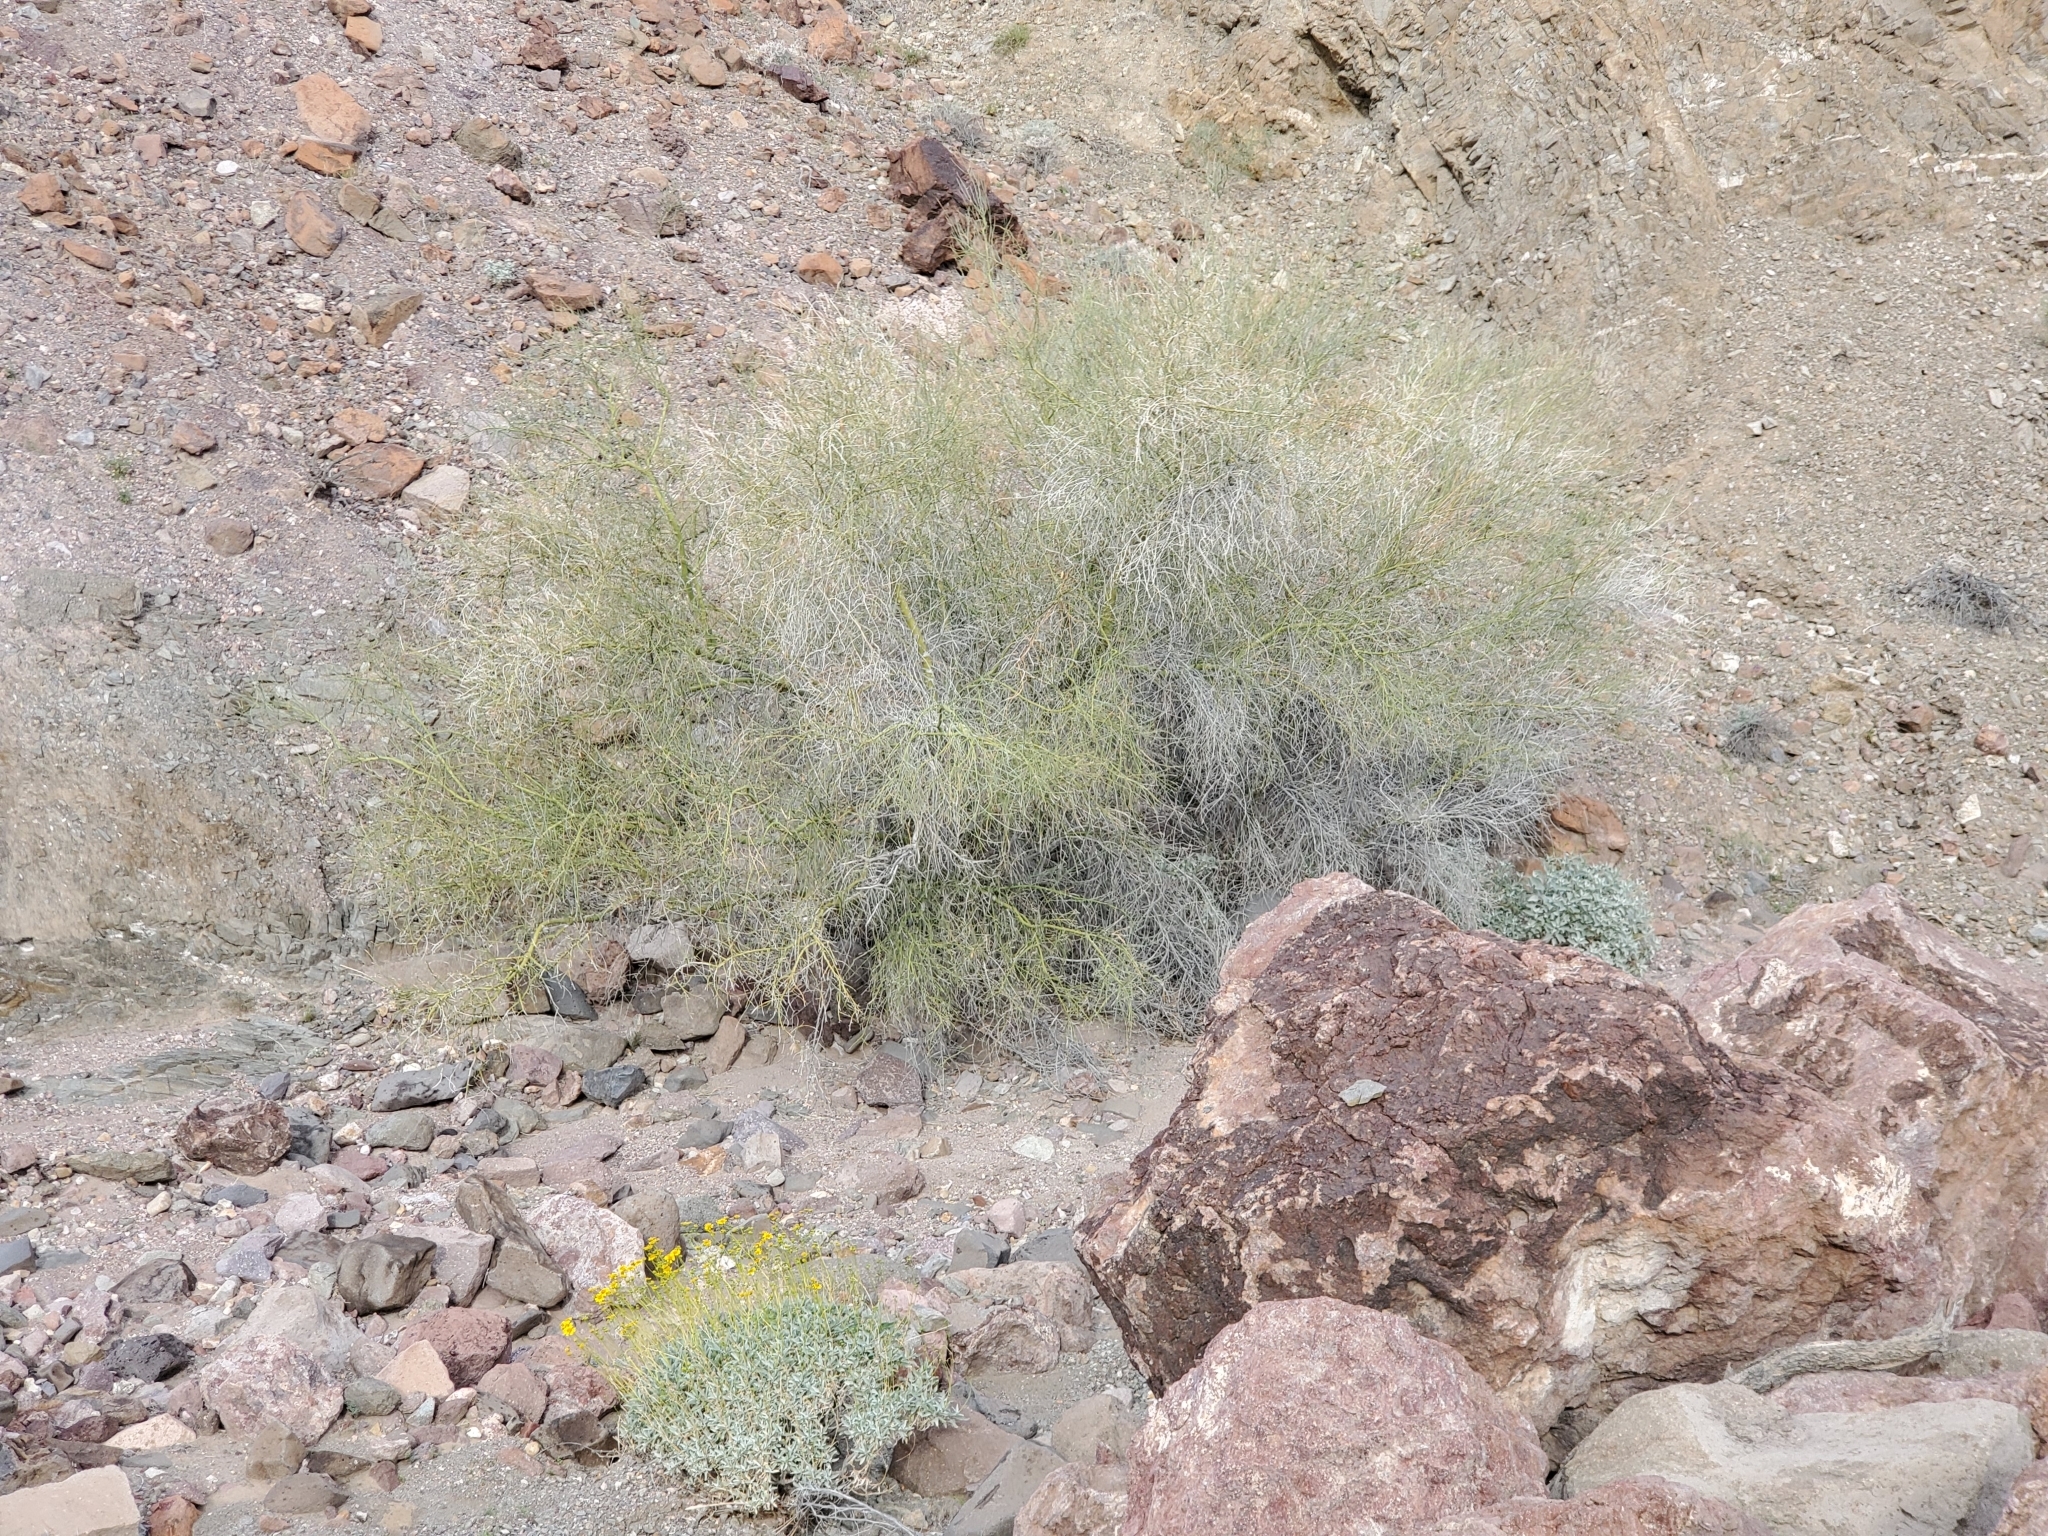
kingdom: Plantae
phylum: Tracheophyta
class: Magnoliopsida
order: Fabales
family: Fabaceae
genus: Parkinsonia
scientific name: Parkinsonia florida
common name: Blue paloverde
